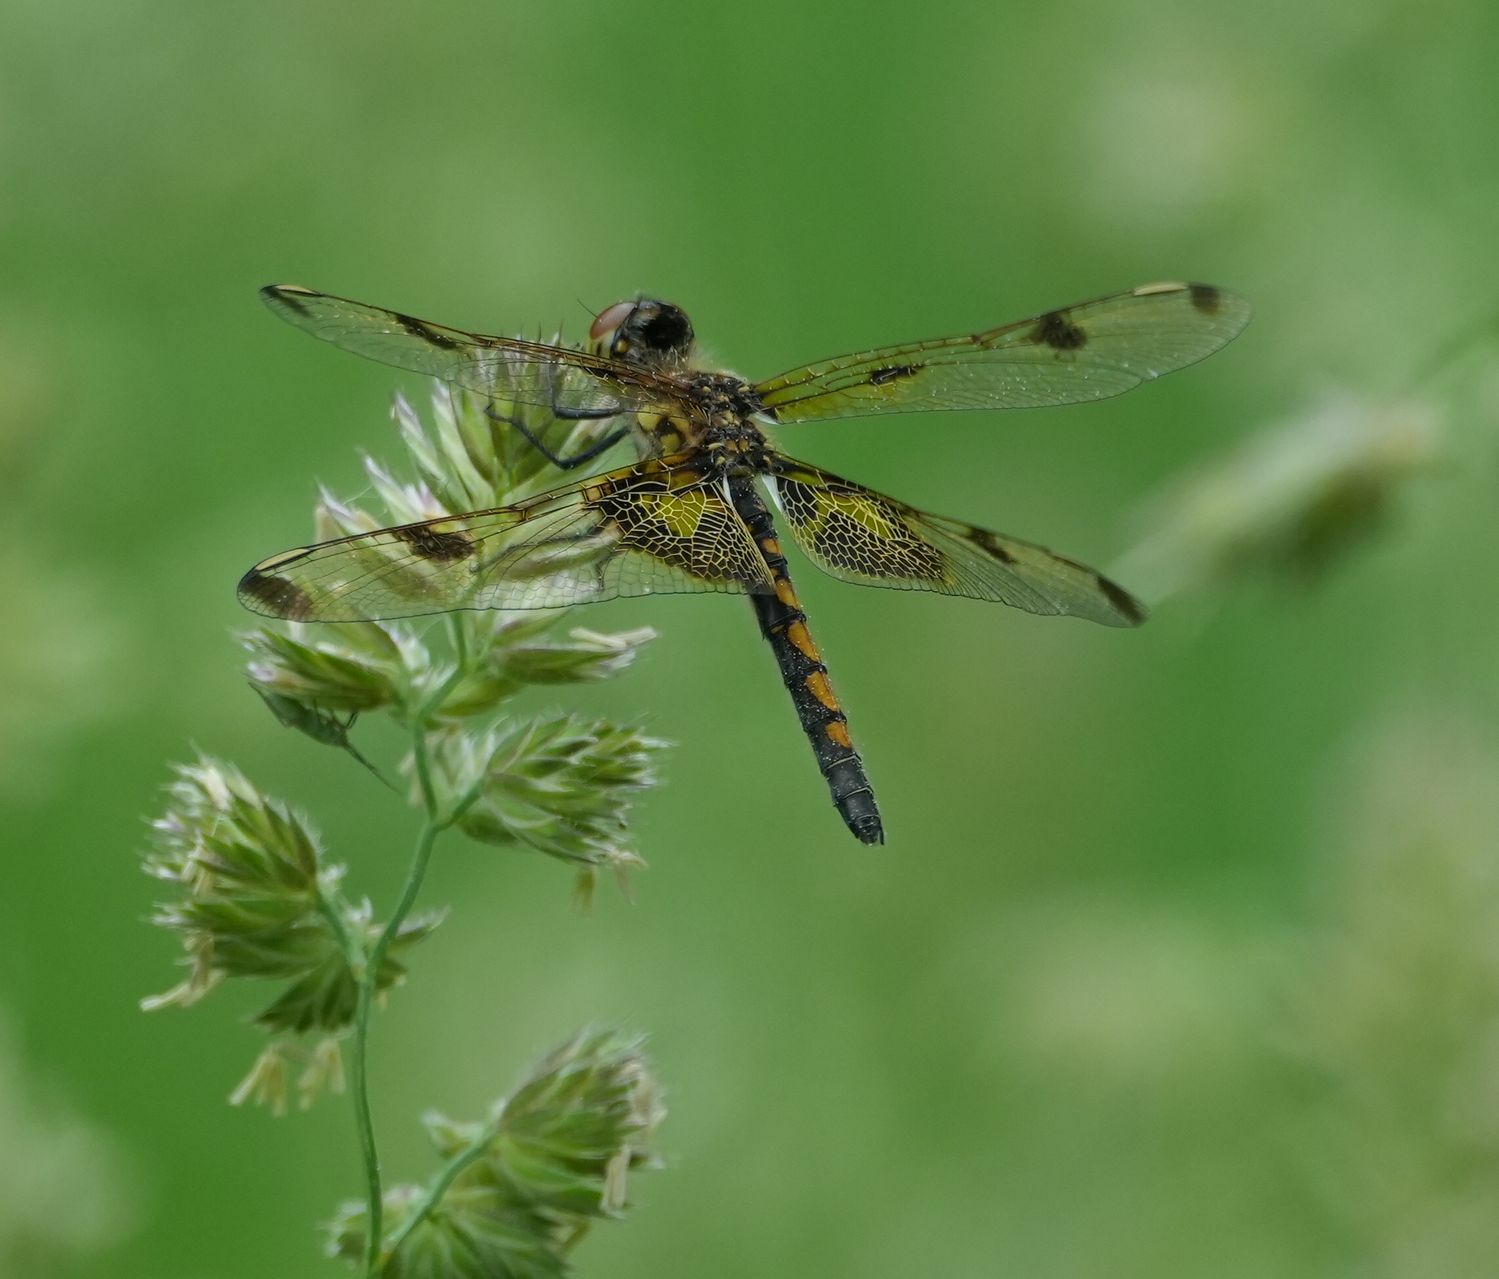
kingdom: Animalia
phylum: Arthropoda
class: Insecta
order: Odonata
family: Libellulidae
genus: Celithemis
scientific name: Celithemis elisa
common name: Calico pennant
